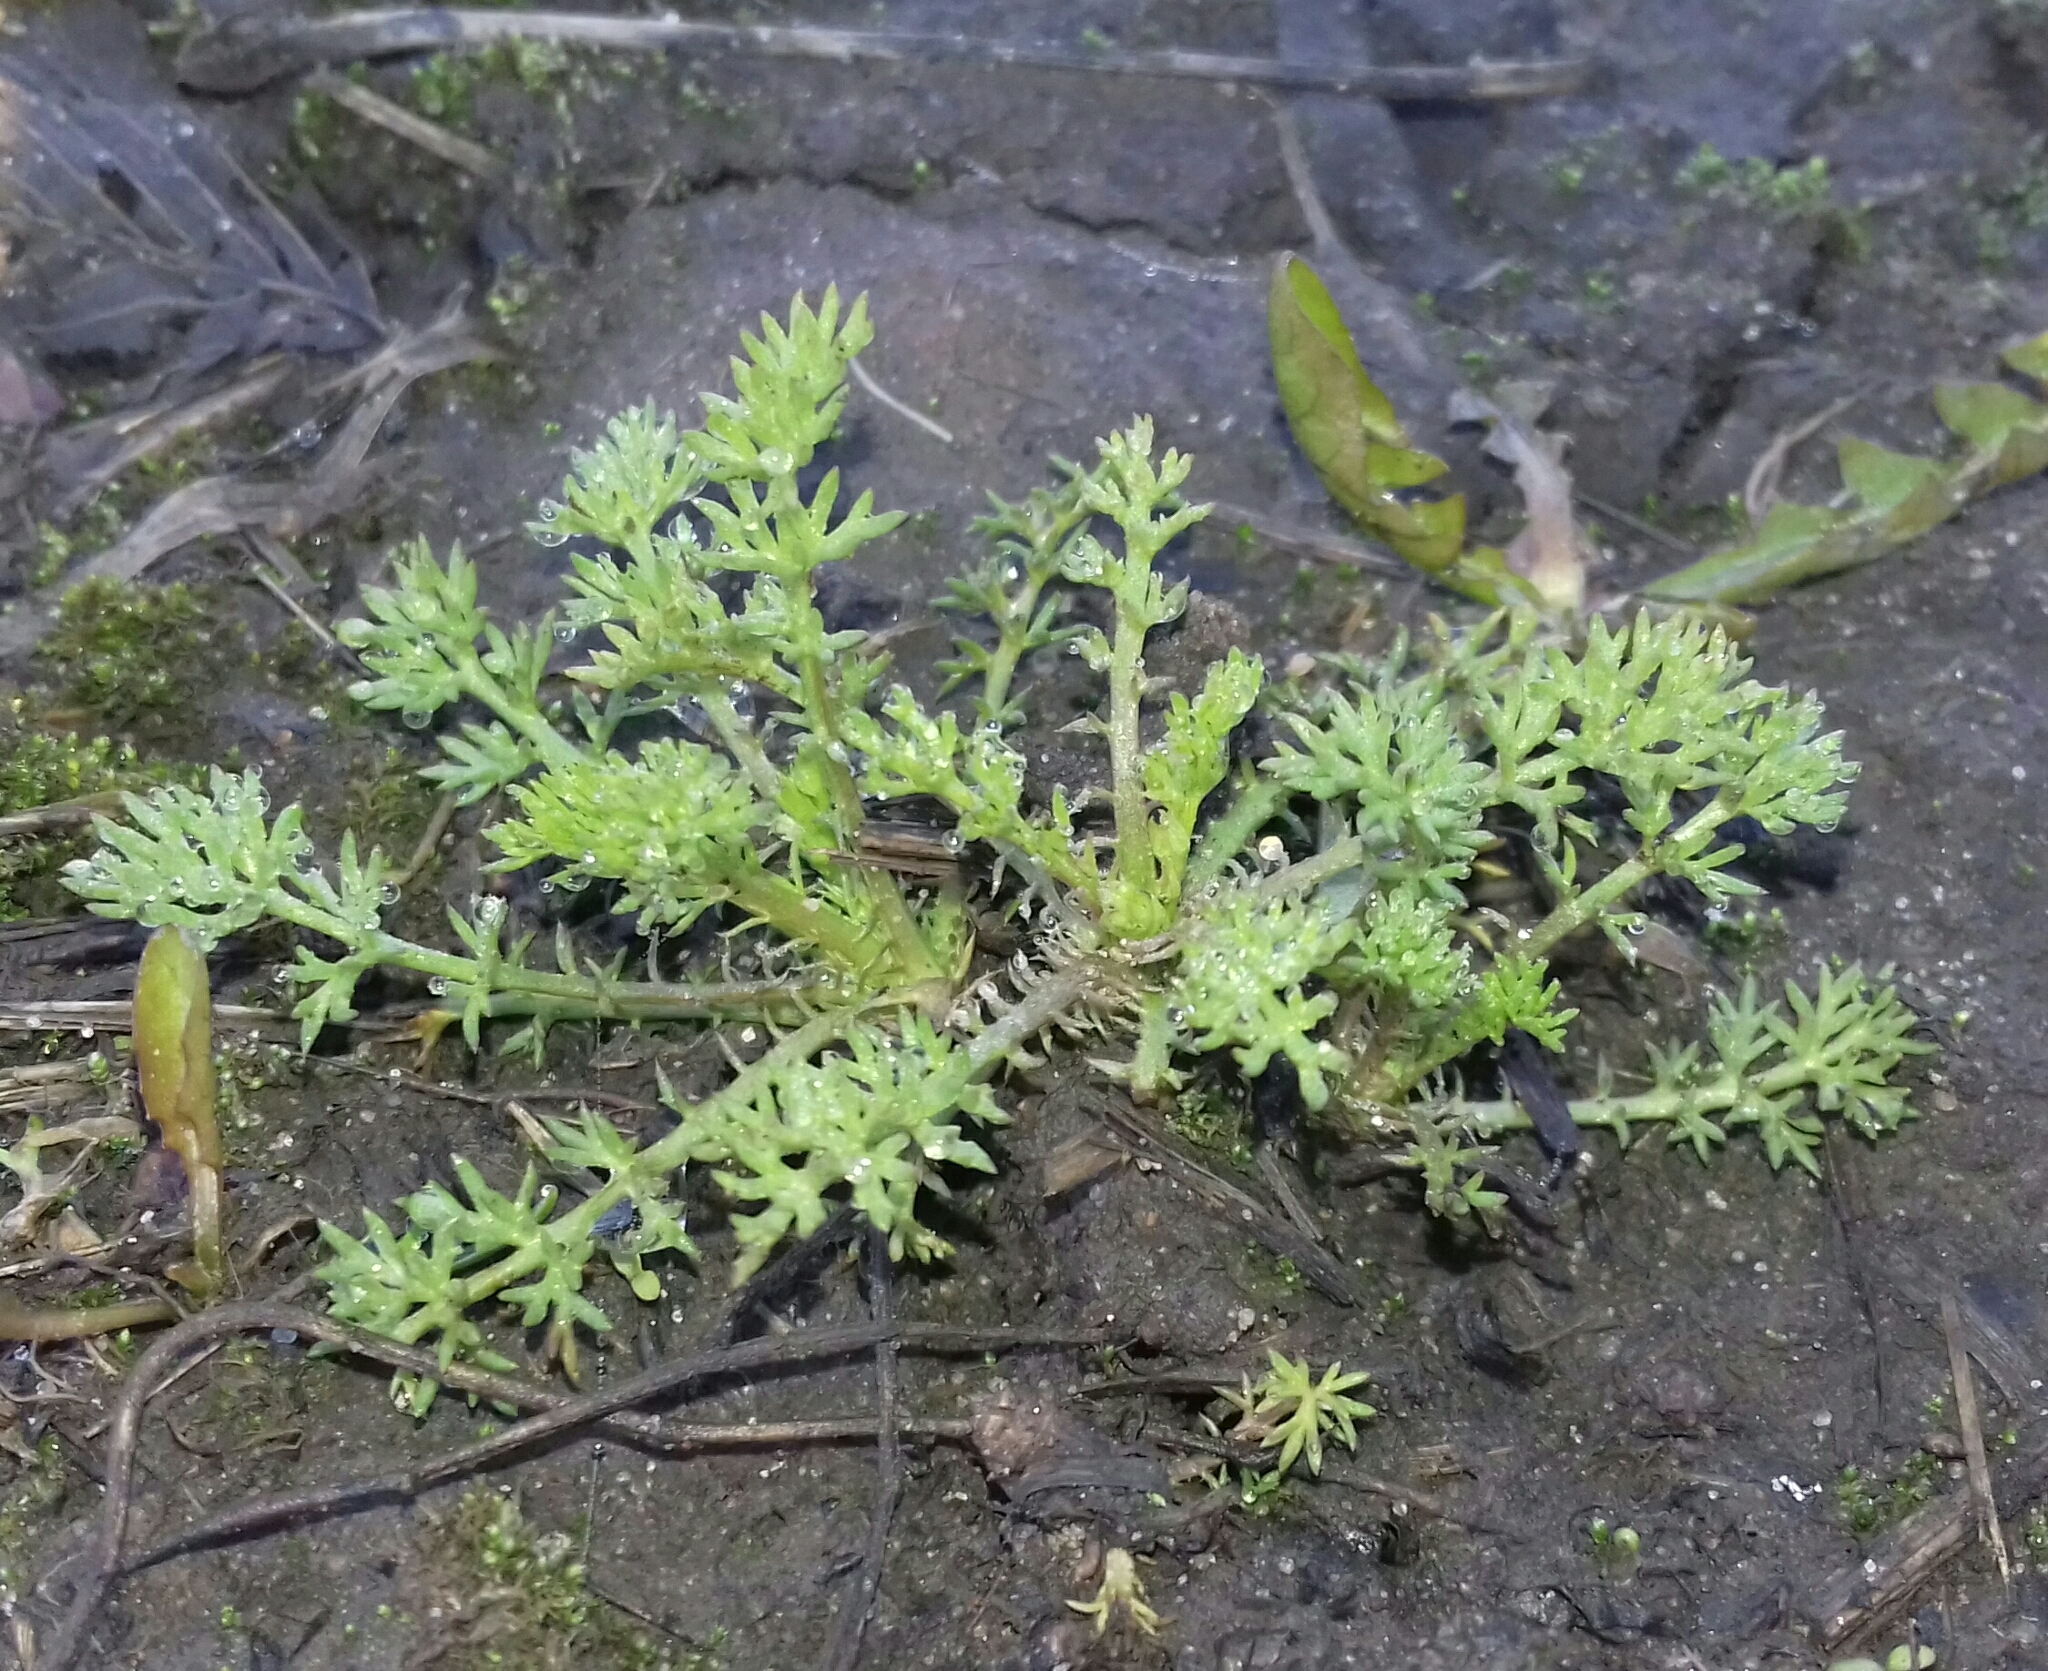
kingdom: Plantae
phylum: Tracheophyta
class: Magnoliopsida
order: Asterales
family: Asteraceae
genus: Tripleurospermum
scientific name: Tripleurospermum inodorum
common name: Scentless mayweed
